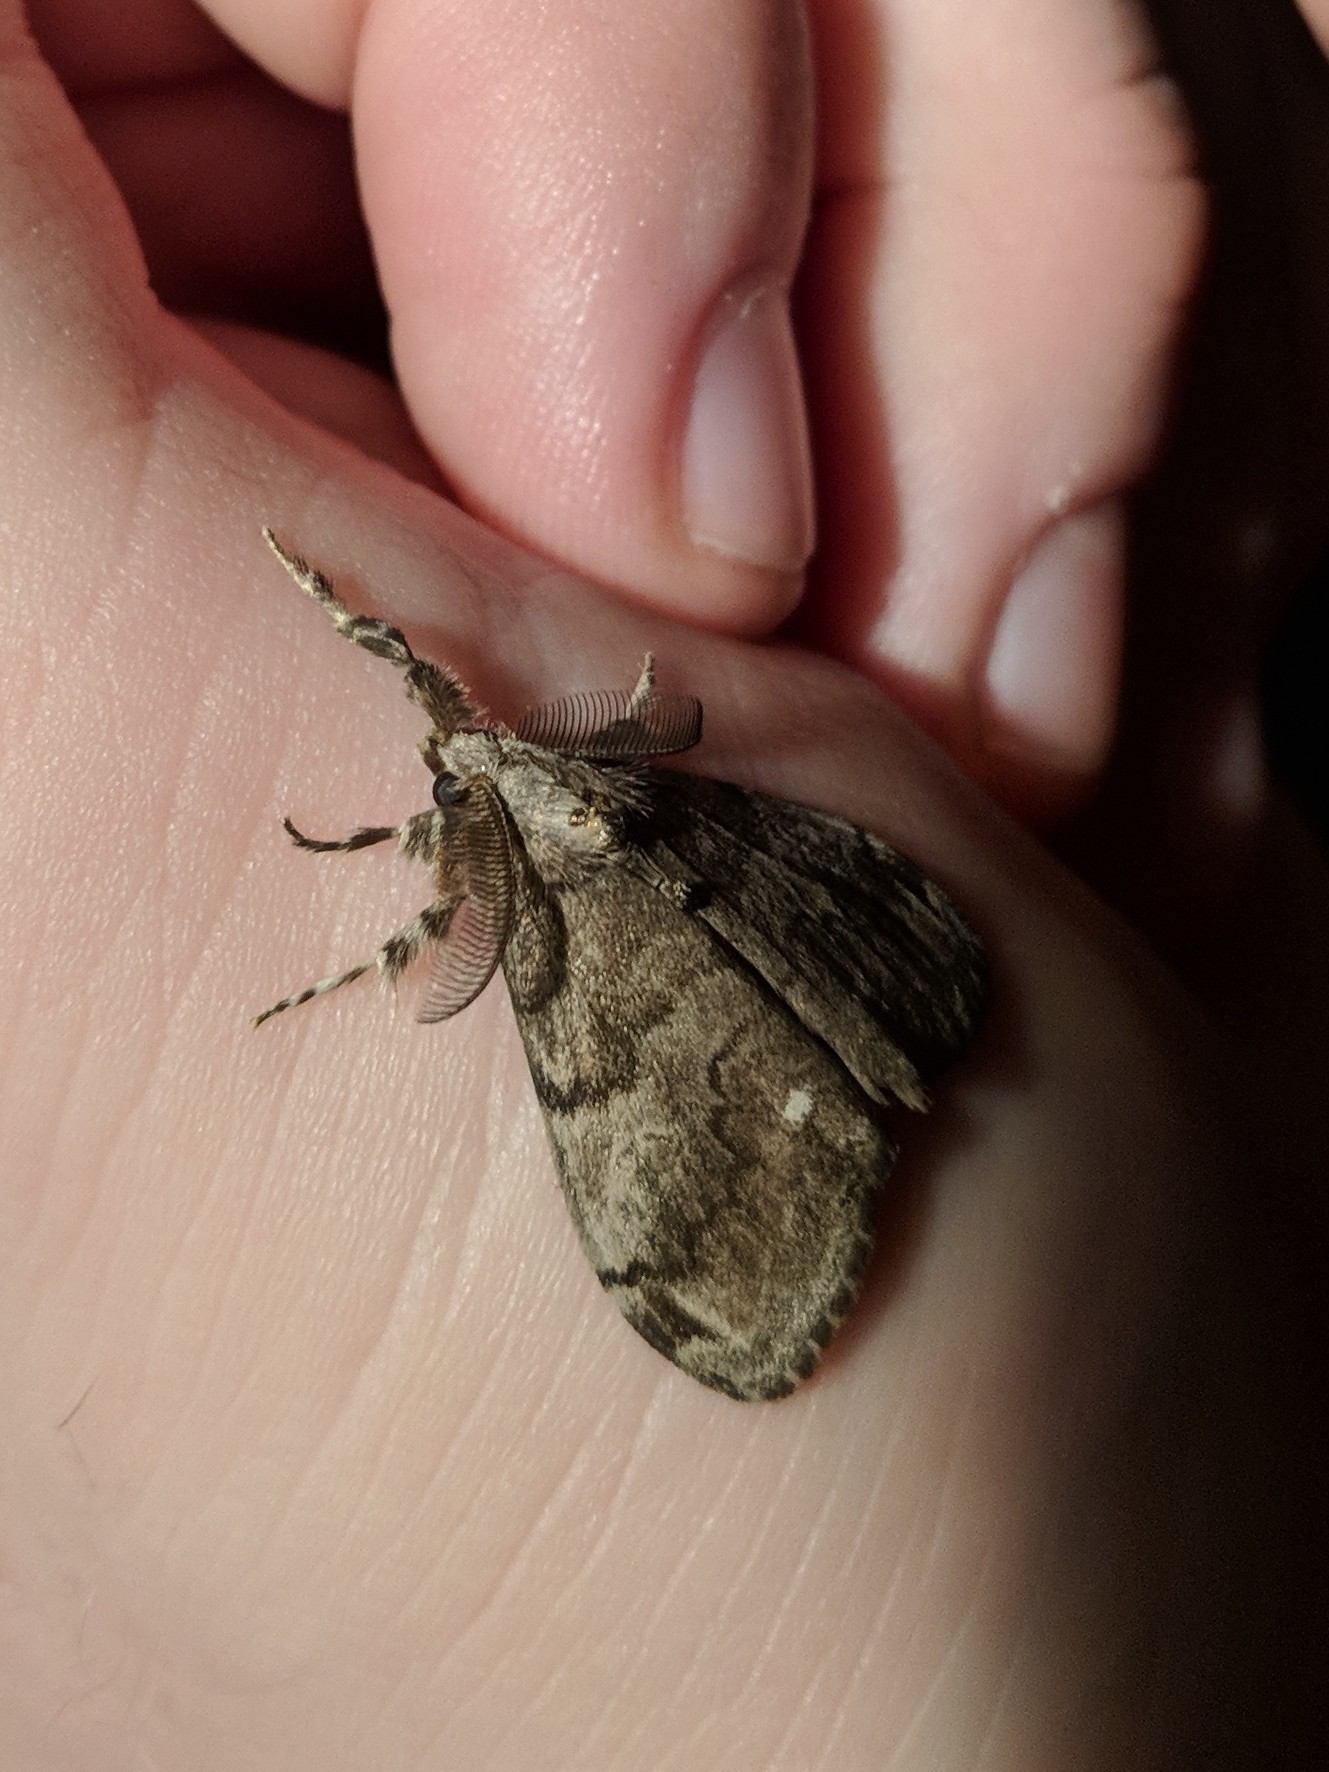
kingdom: Animalia
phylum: Arthropoda
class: Insecta
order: Lepidoptera
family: Erebidae
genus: Orgyia
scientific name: Orgyia leucostigma
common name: White-marked tussock moth
